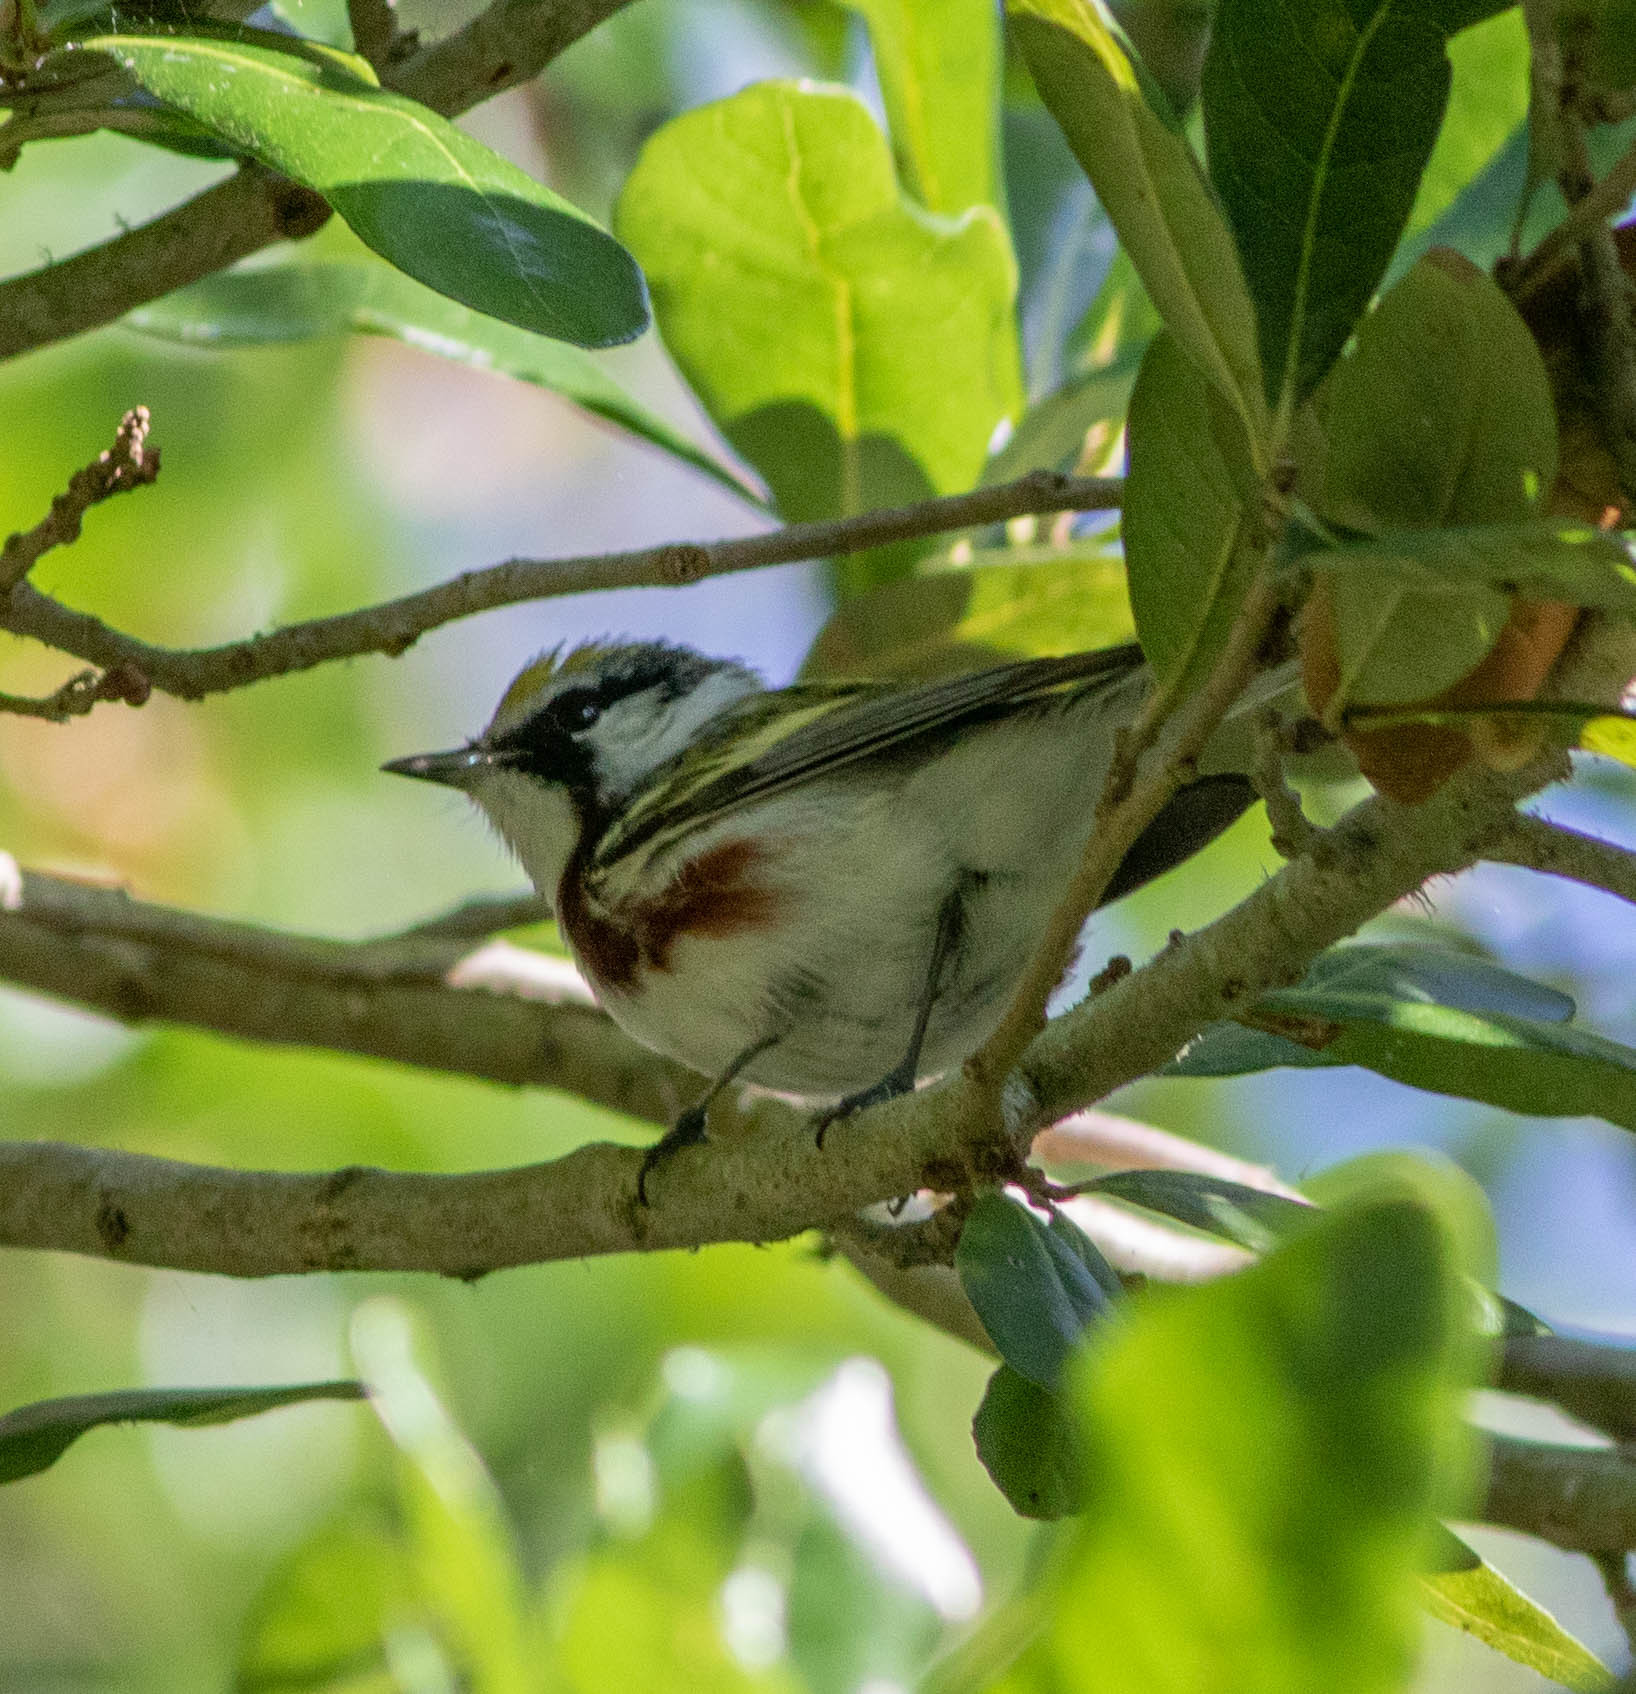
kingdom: Animalia
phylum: Chordata
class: Aves
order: Passeriformes
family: Parulidae
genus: Setophaga
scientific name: Setophaga pensylvanica
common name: Chestnut-sided warbler
